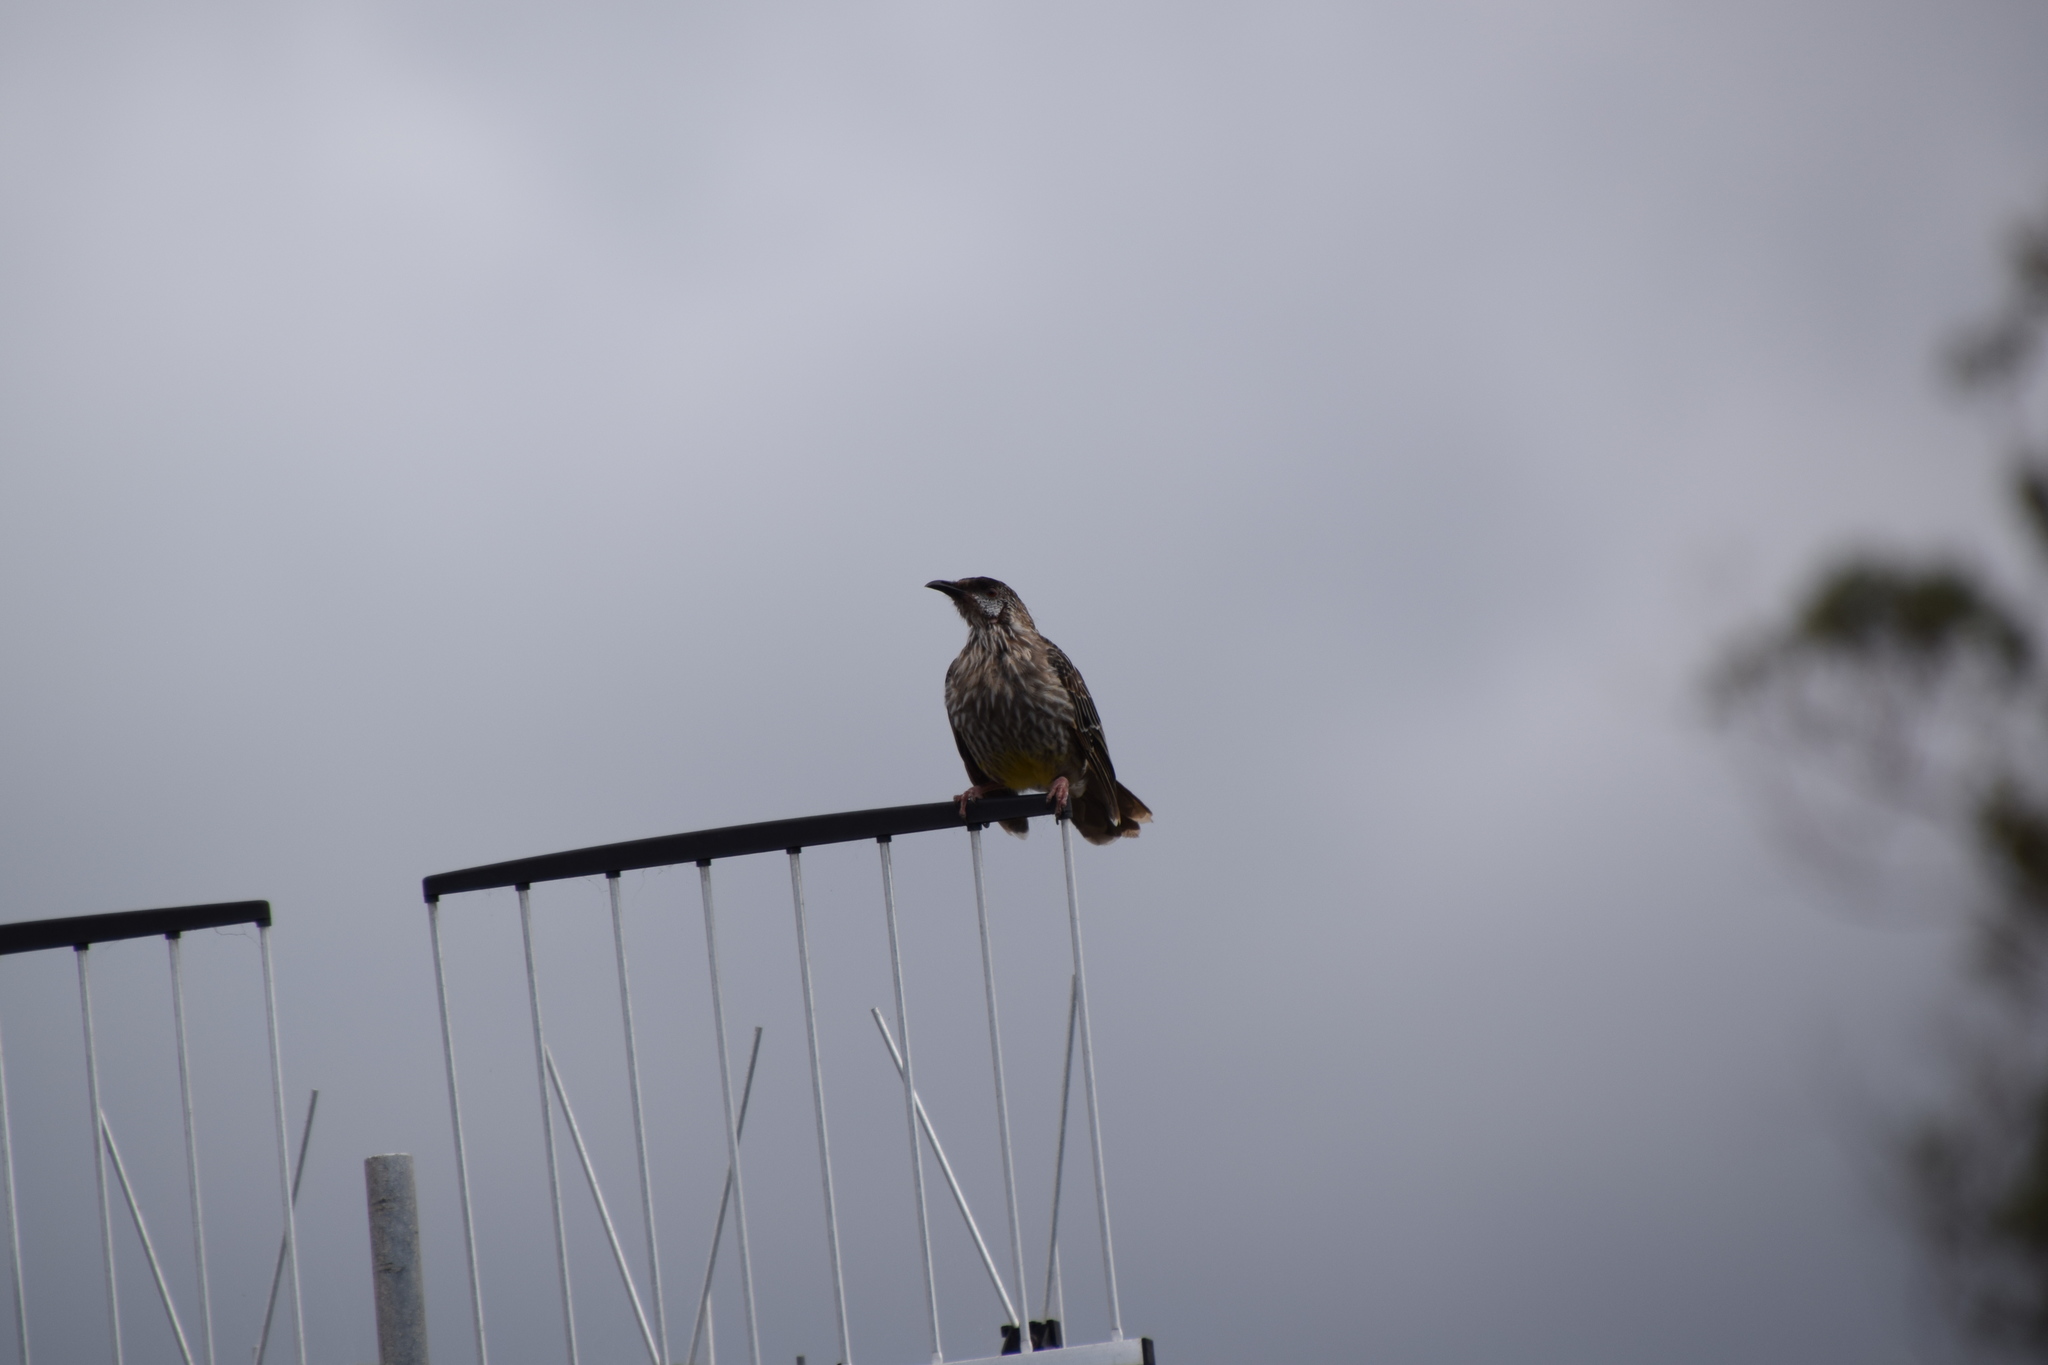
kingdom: Animalia
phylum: Chordata
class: Aves
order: Passeriformes
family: Meliphagidae
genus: Anthochaera
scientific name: Anthochaera carunculata
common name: Red wattlebird
